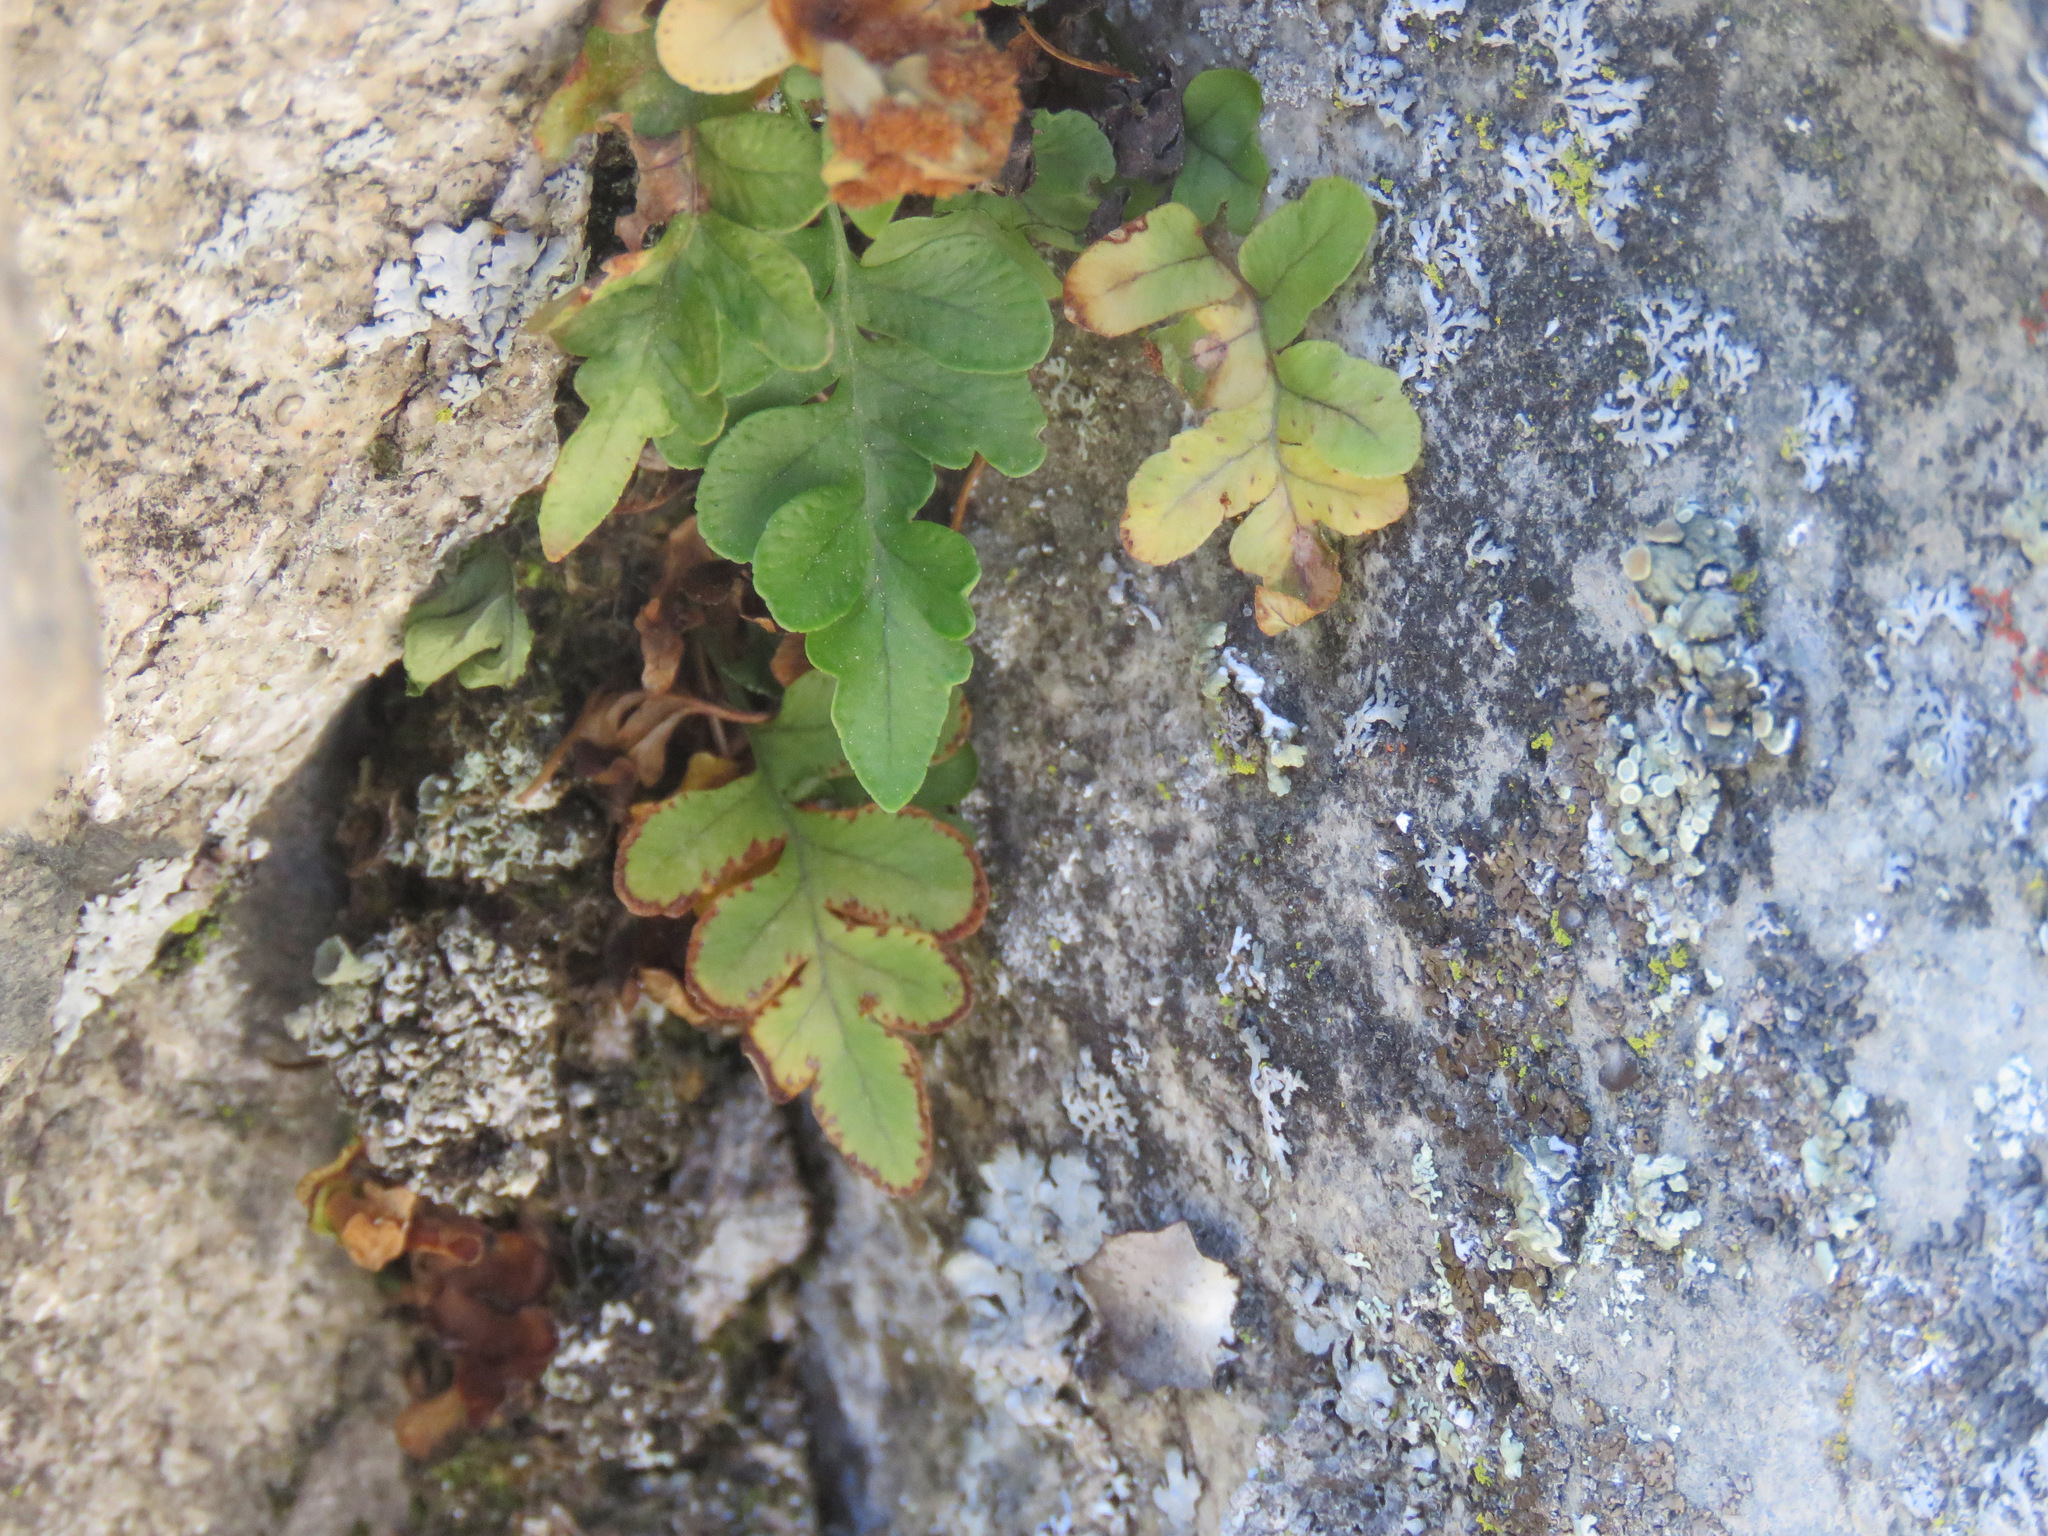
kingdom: Plantae
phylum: Tracheophyta
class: Polypodiopsida
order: Polypodiales
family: Polypodiaceae
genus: Polypodium
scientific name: Polypodium hesperium
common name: Western polypody
